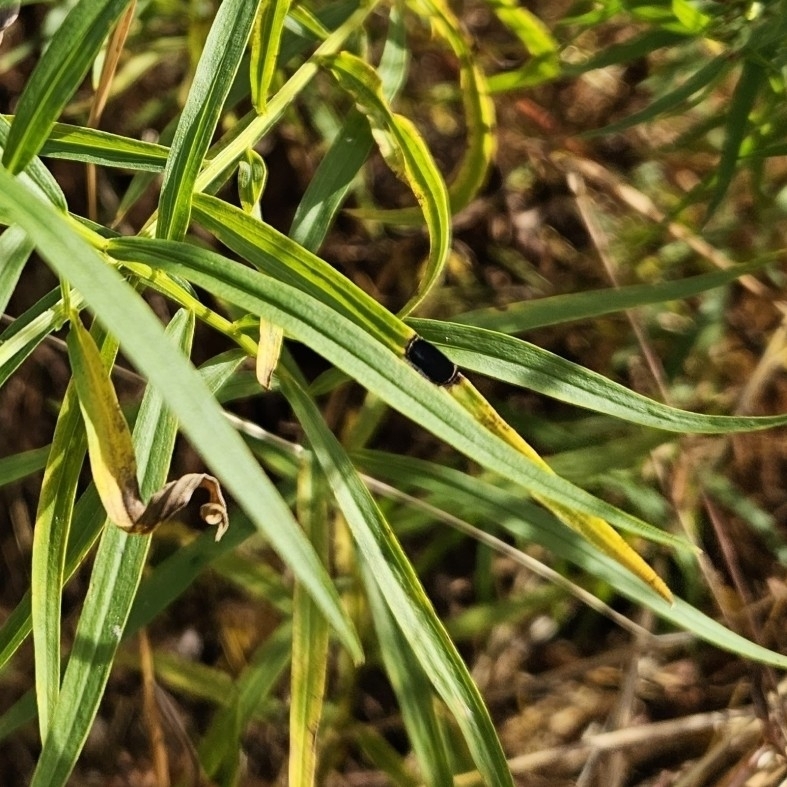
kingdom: Animalia
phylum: Arthropoda
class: Insecta
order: Diptera
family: Cecidomyiidae
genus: Asteromyia
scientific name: Asteromyia euthamiae
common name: Euthamia leaf gall midge
